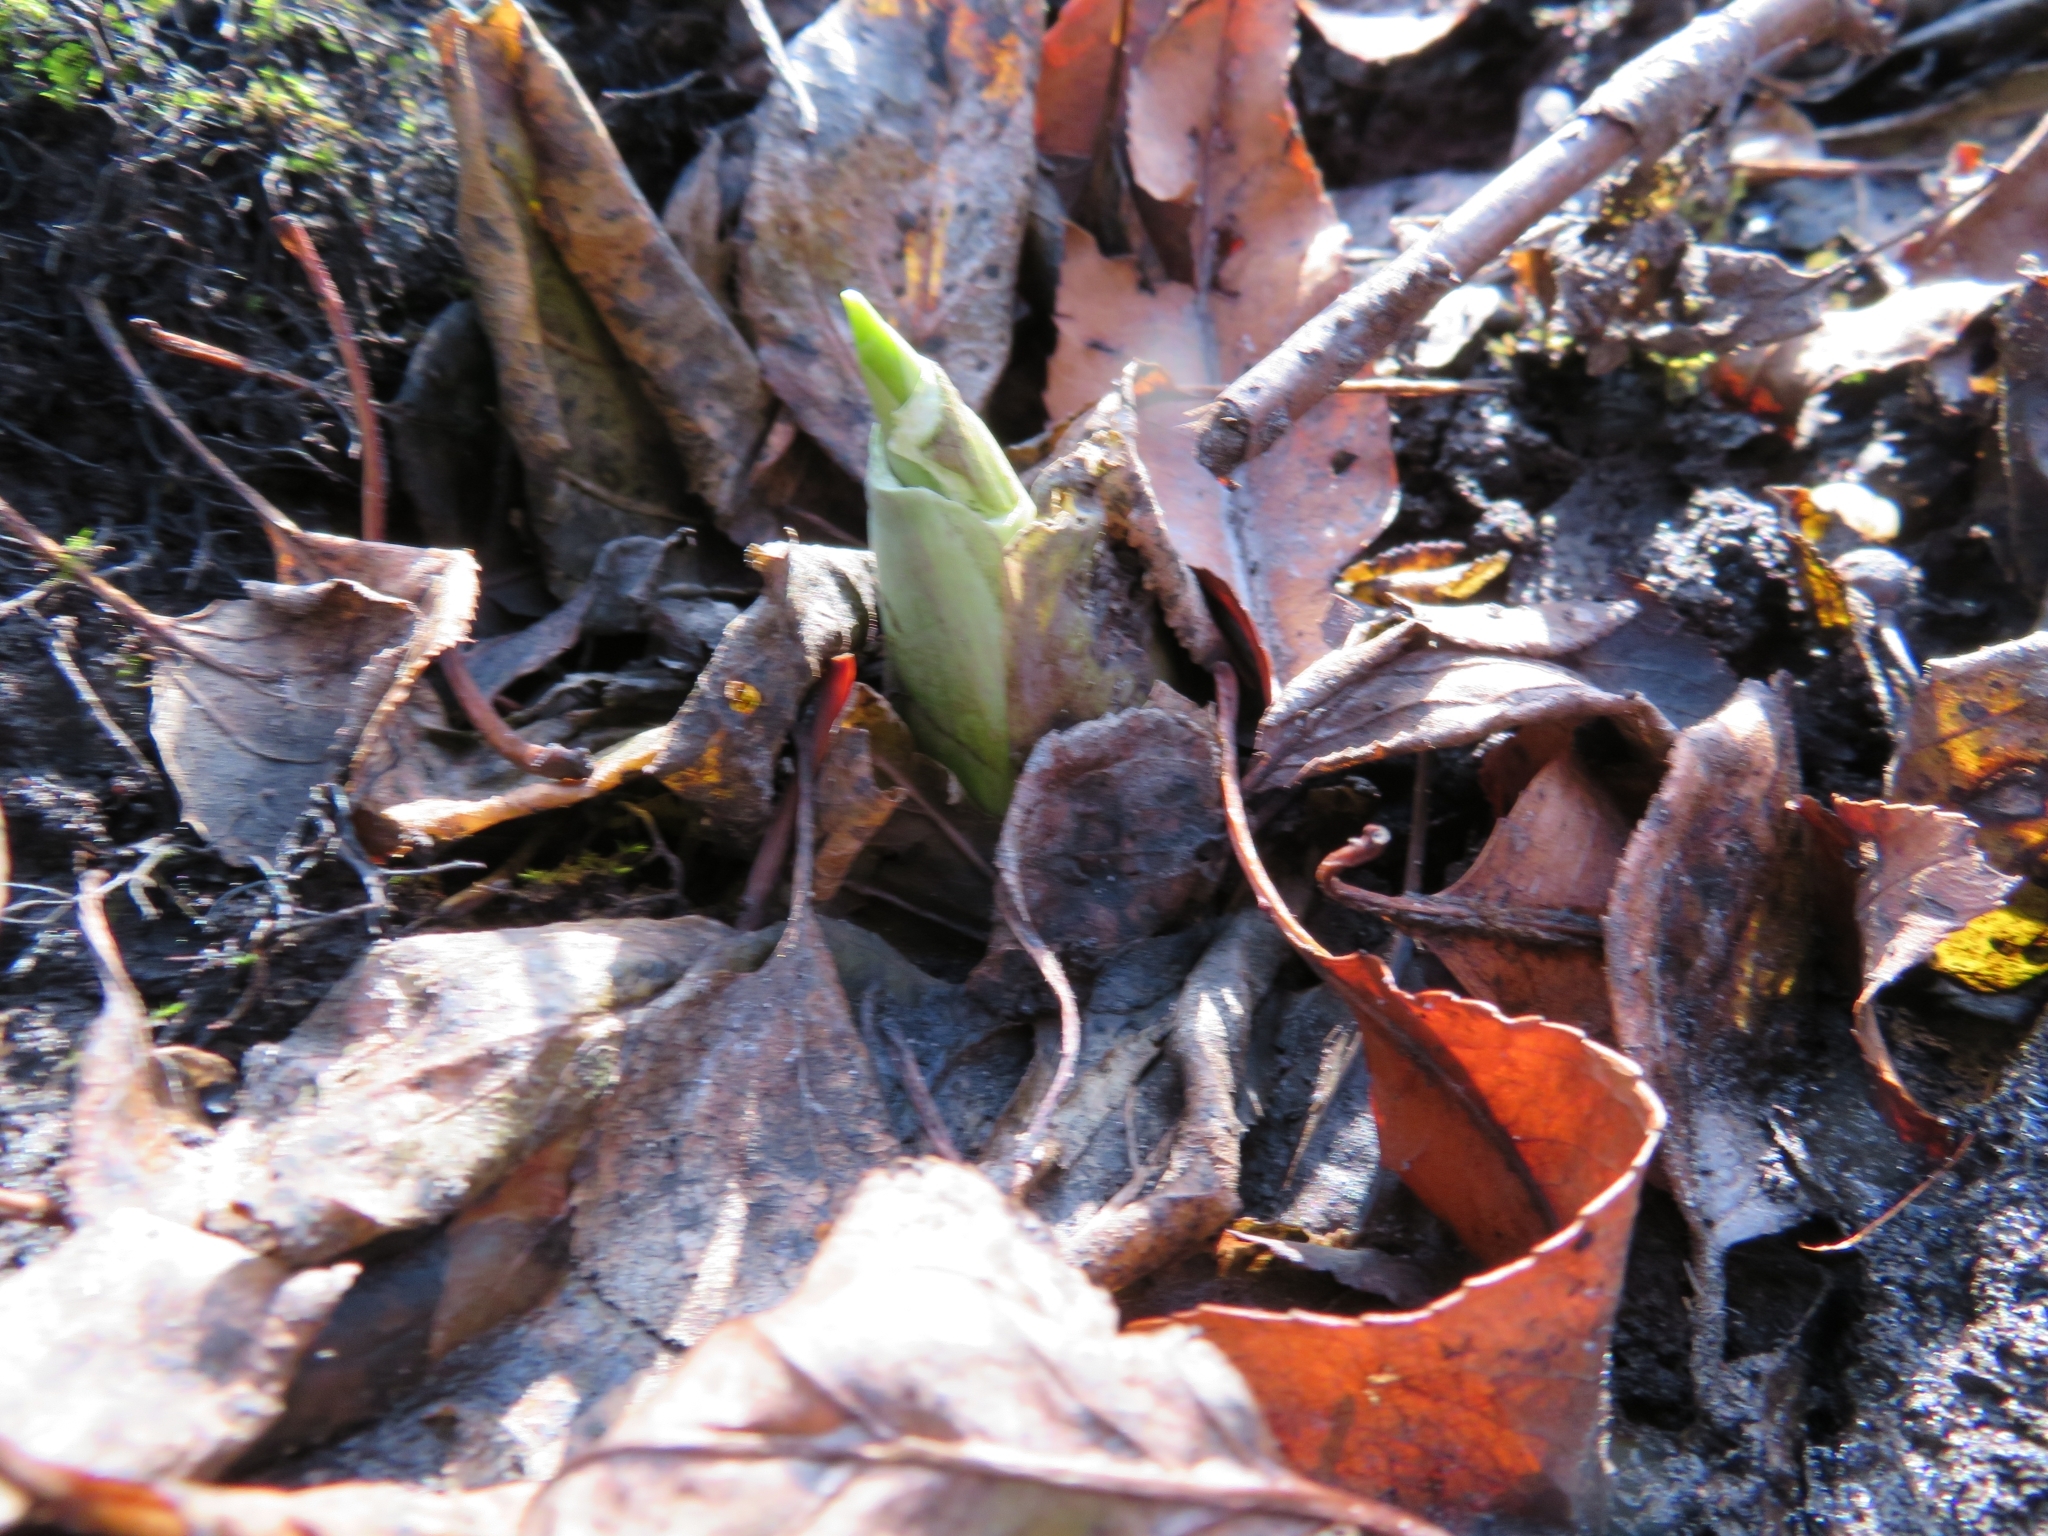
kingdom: Plantae
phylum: Tracheophyta
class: Liliopsida
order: Alismatales
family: Araceae
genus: Symplocarpus
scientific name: Symplocarpus foetidus
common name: Eastern skunk cabbage
